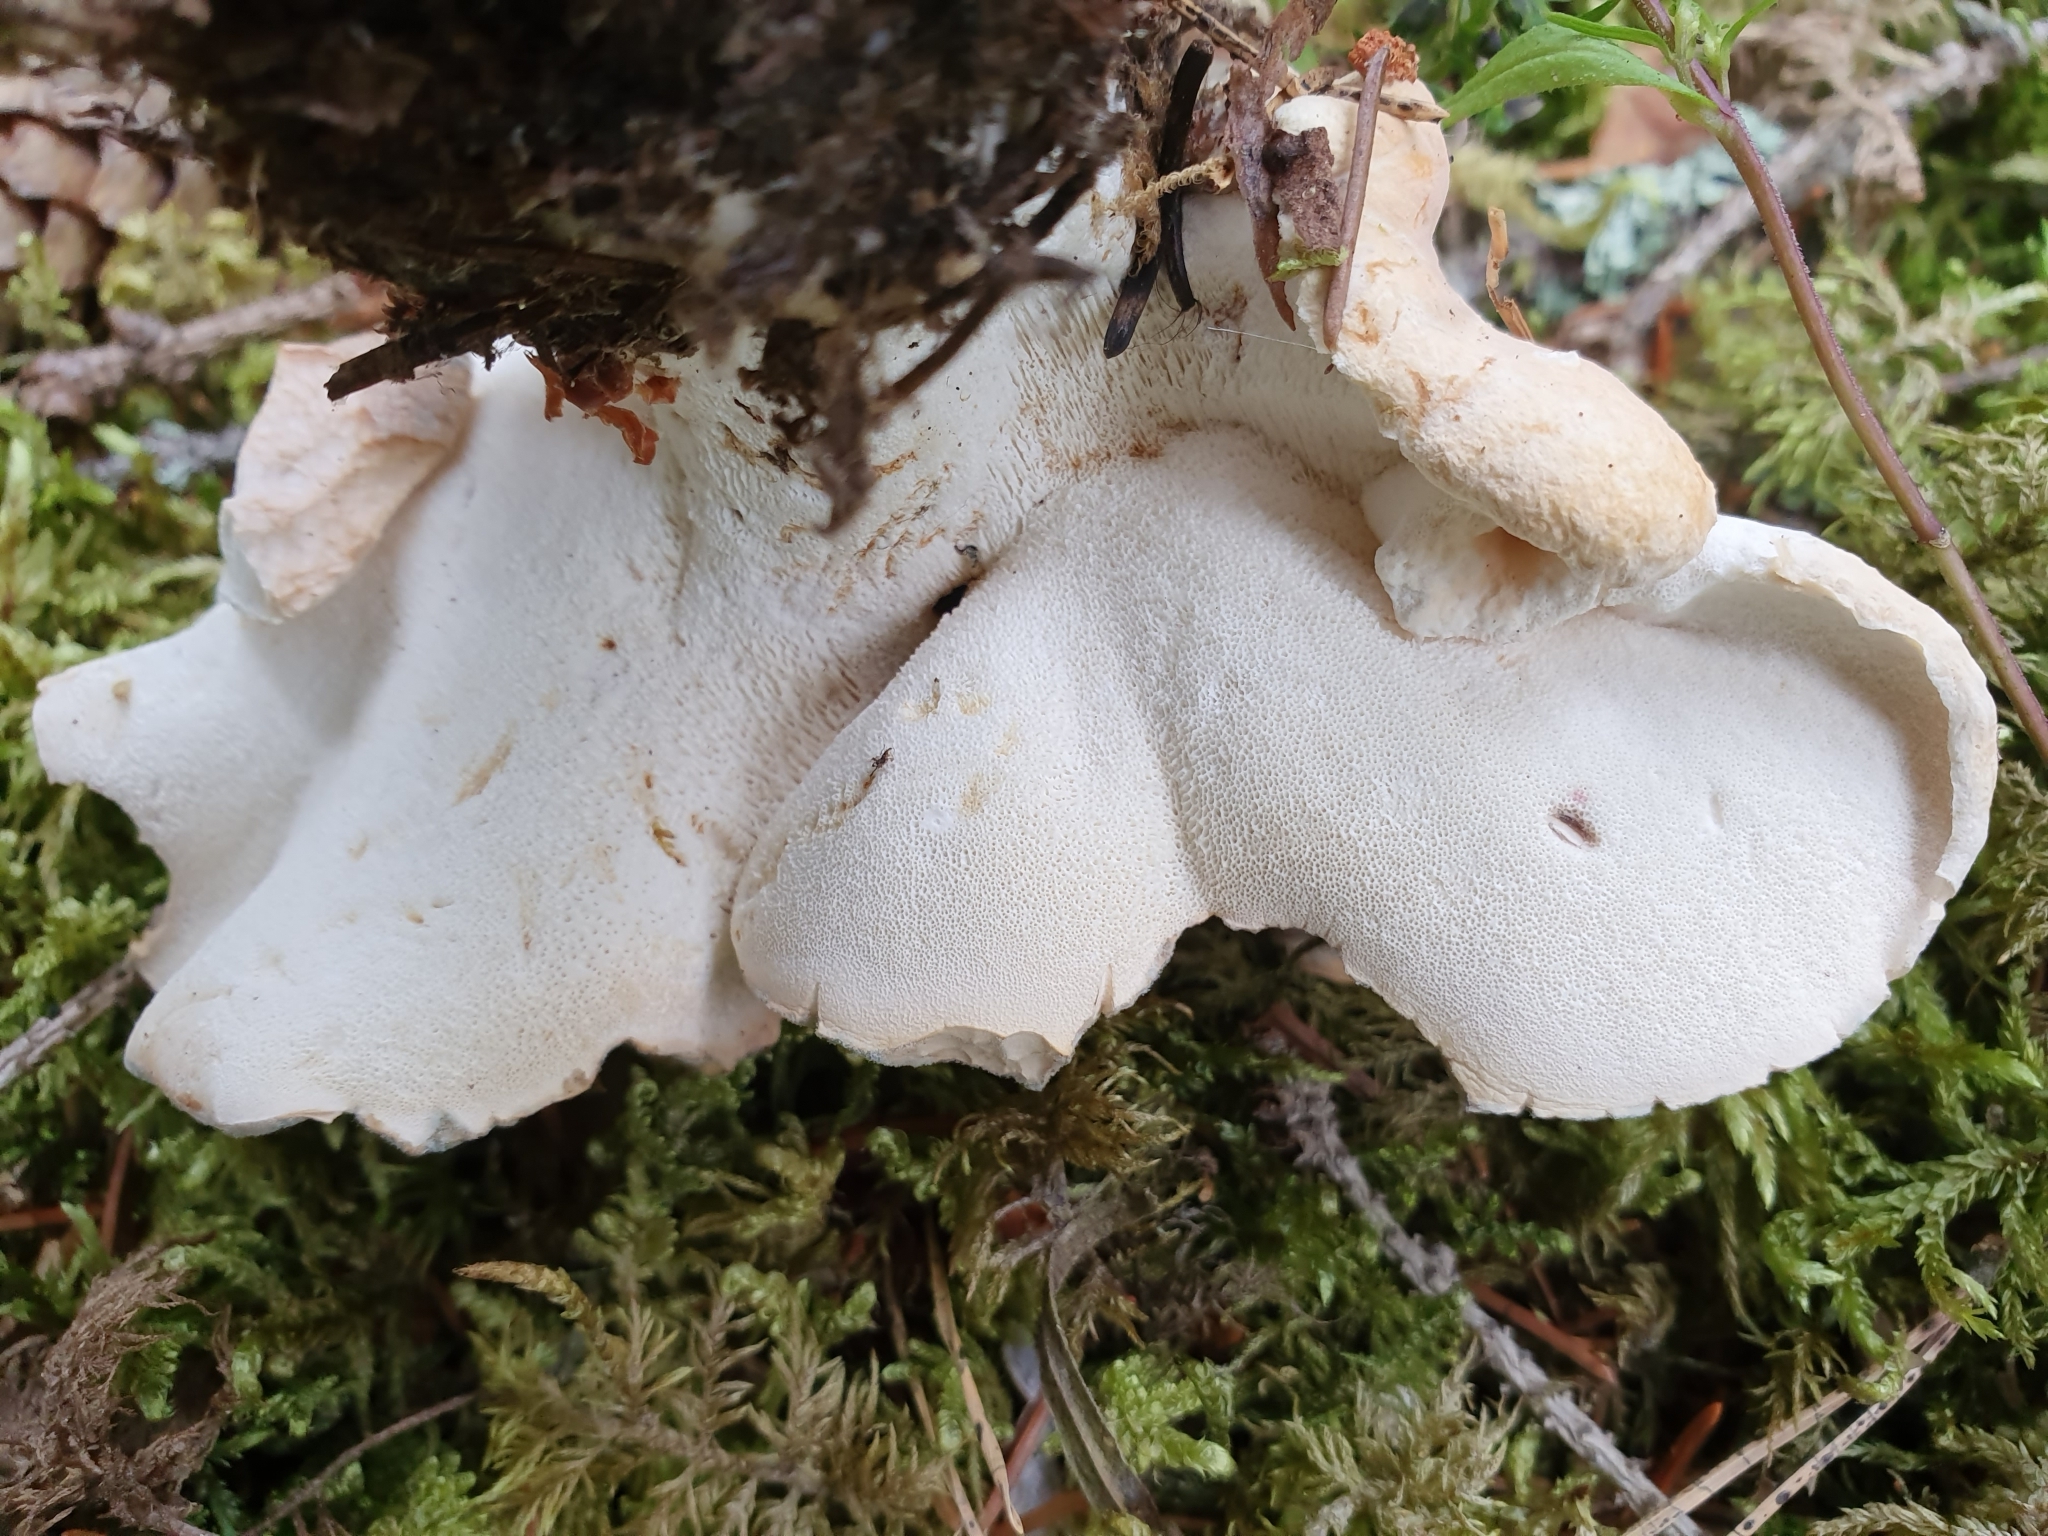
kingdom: Fungi
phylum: Basidiomycota
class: Agaricomycetes
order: Russulales
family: Albatrellaceae
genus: Albatrellopsis
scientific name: Albatrellopsis confluens
